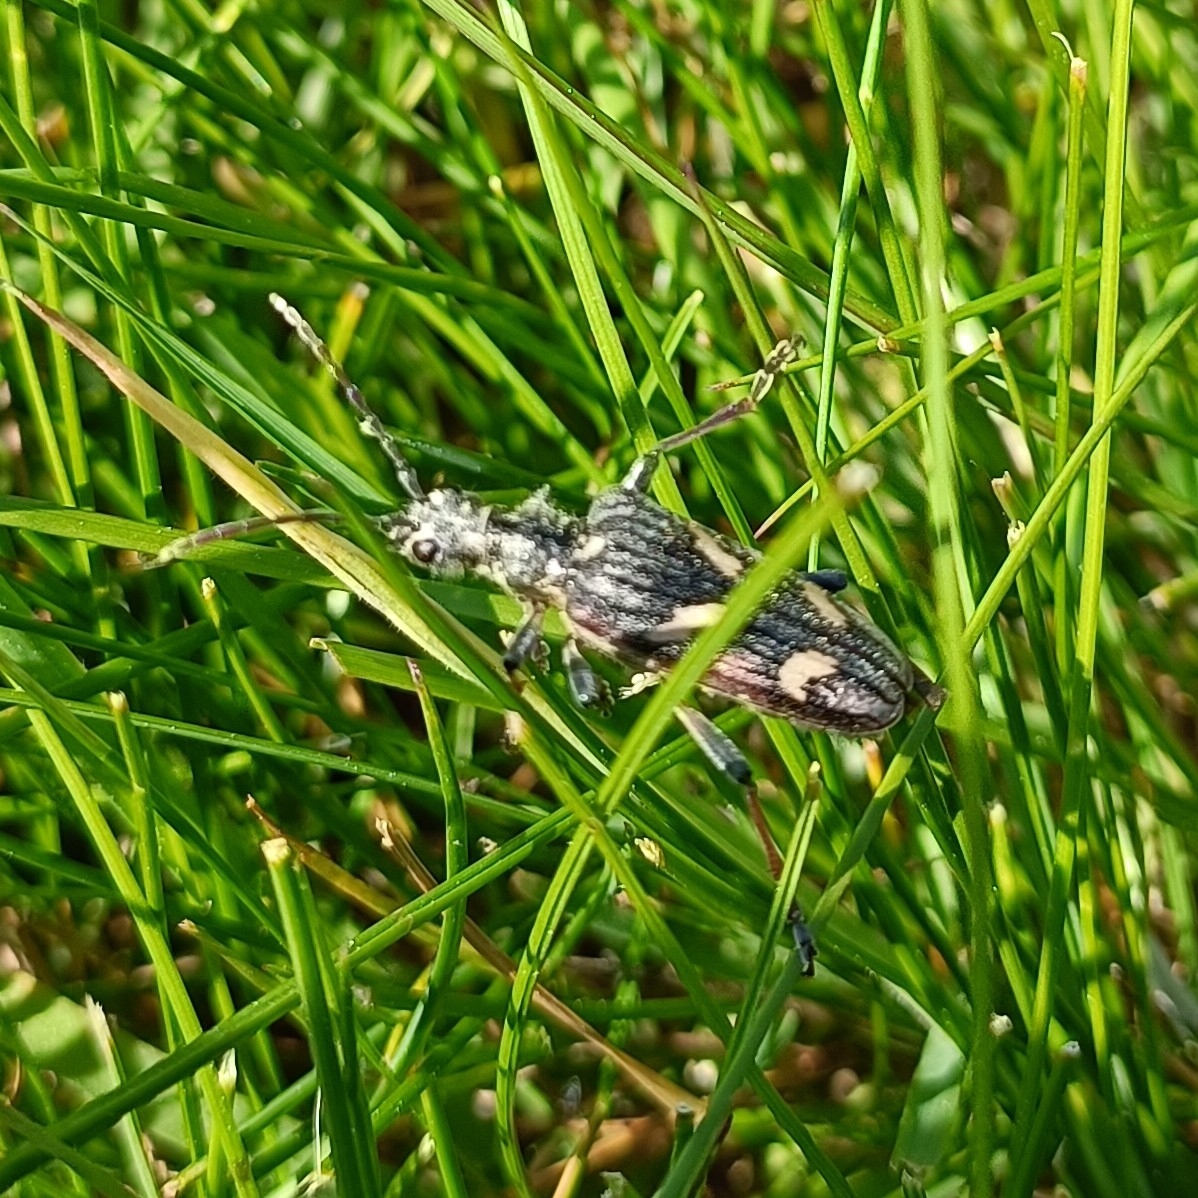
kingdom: Animalia
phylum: Arthropoda
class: Insecta
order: Coleoptera
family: Cerambycidae
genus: Rhagium
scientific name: Rhagium bifasciatum
